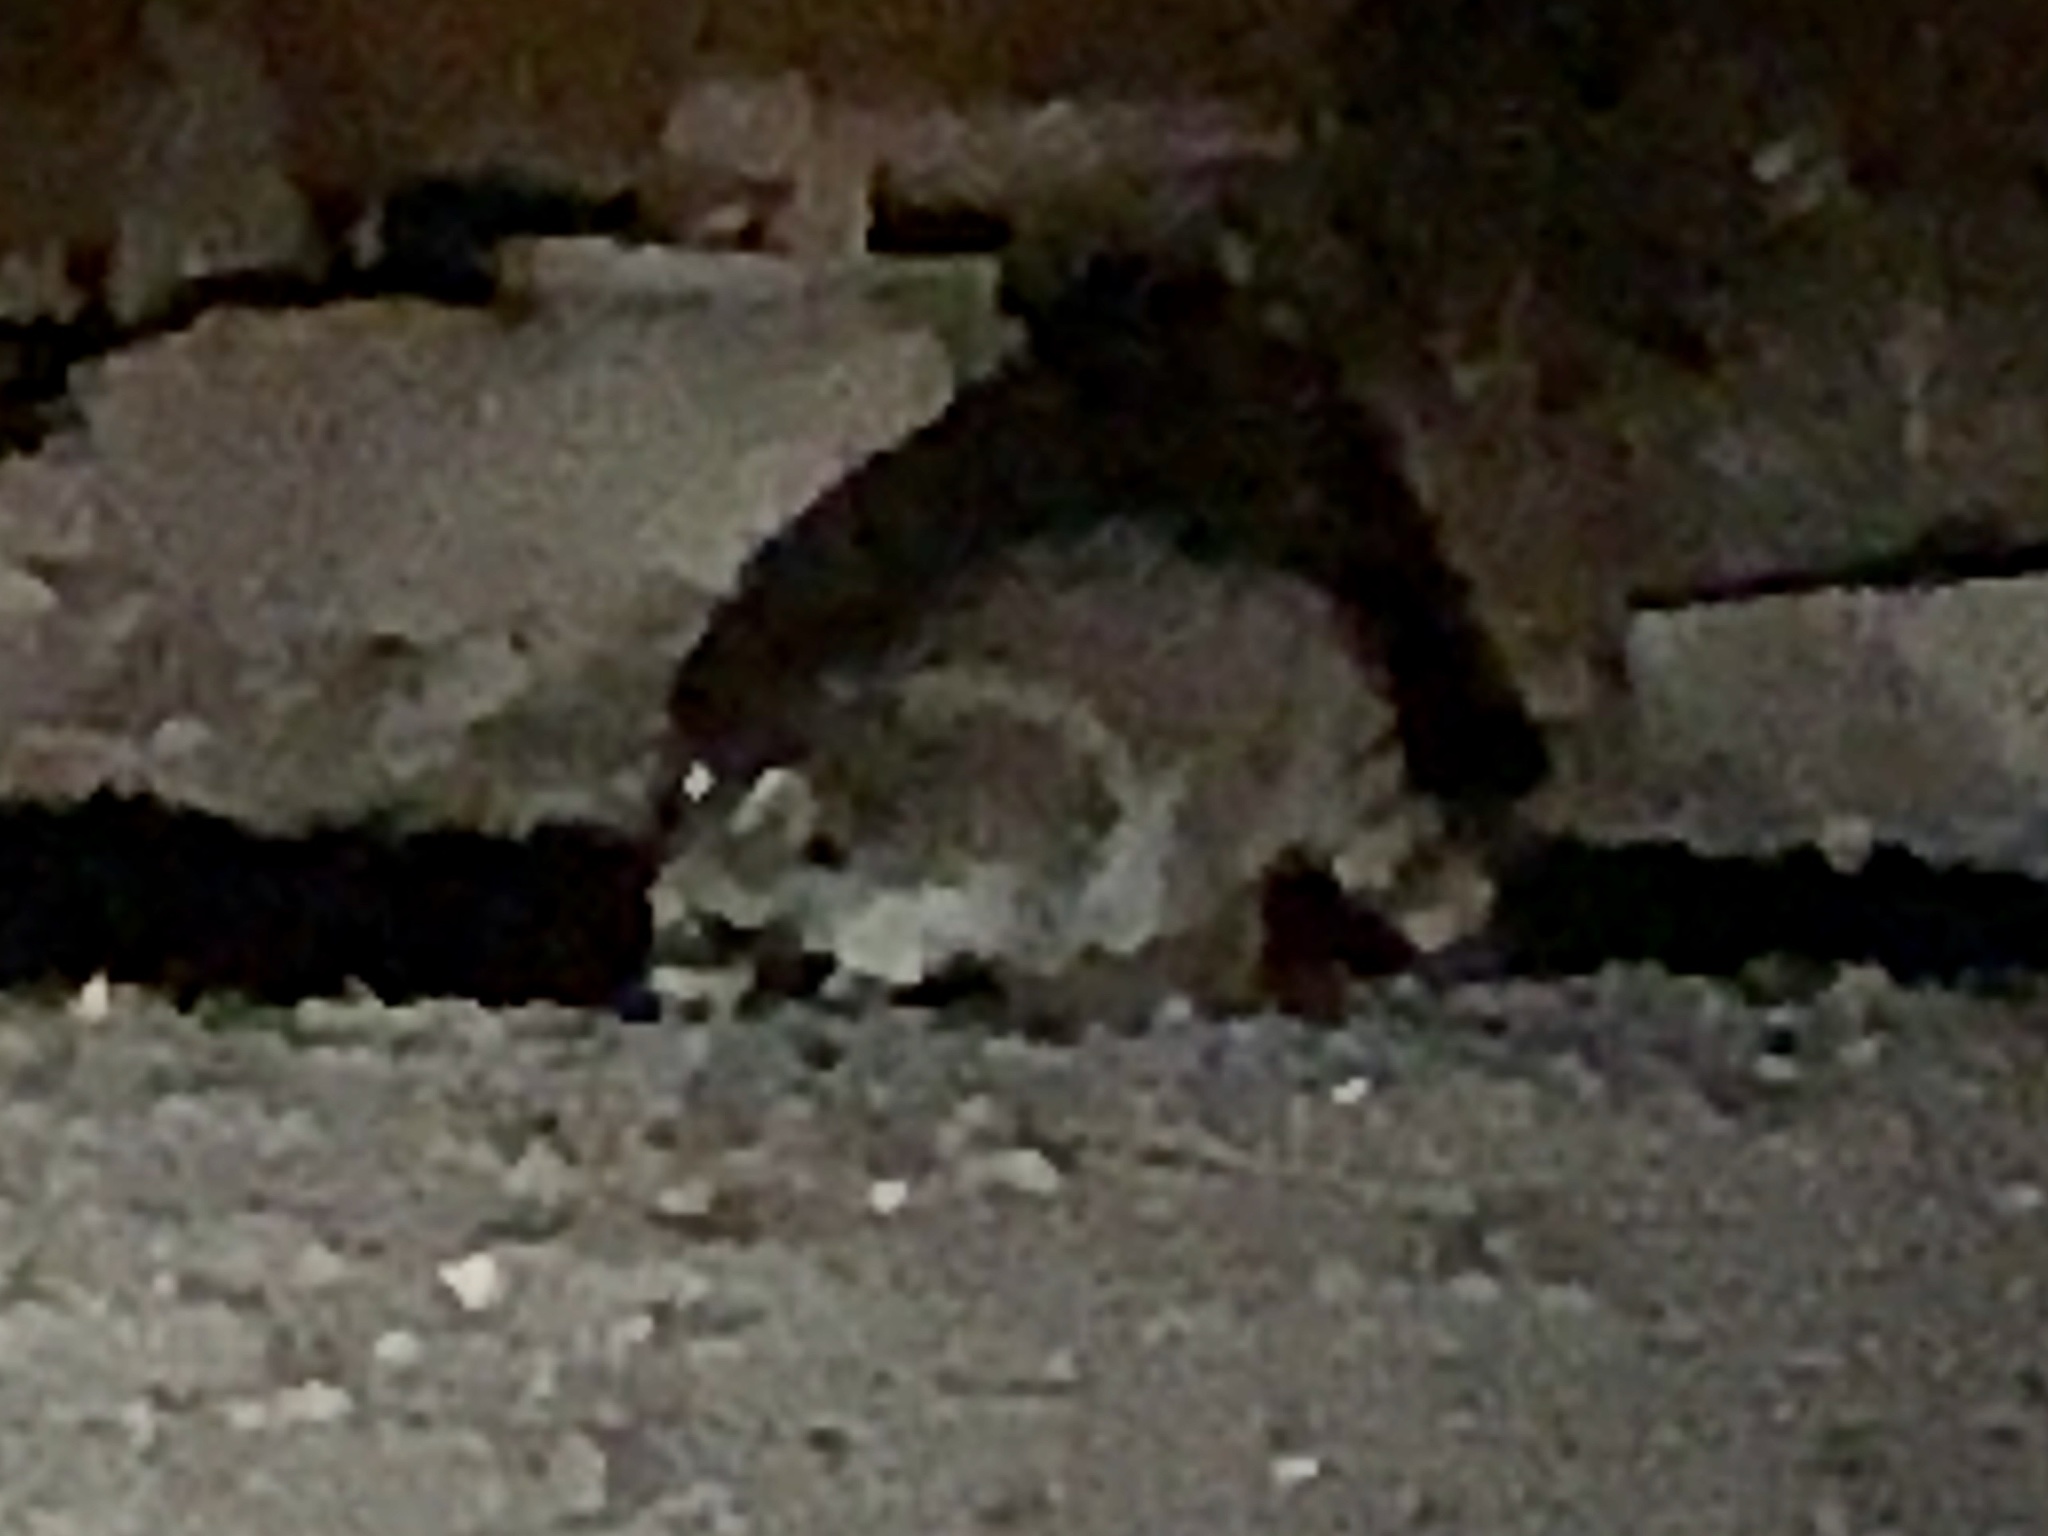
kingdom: Animalia
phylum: Chordata
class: Mammalia
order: Carnivora
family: Procyonidae
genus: Procyon
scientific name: Procyon lotor
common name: Raccoon
